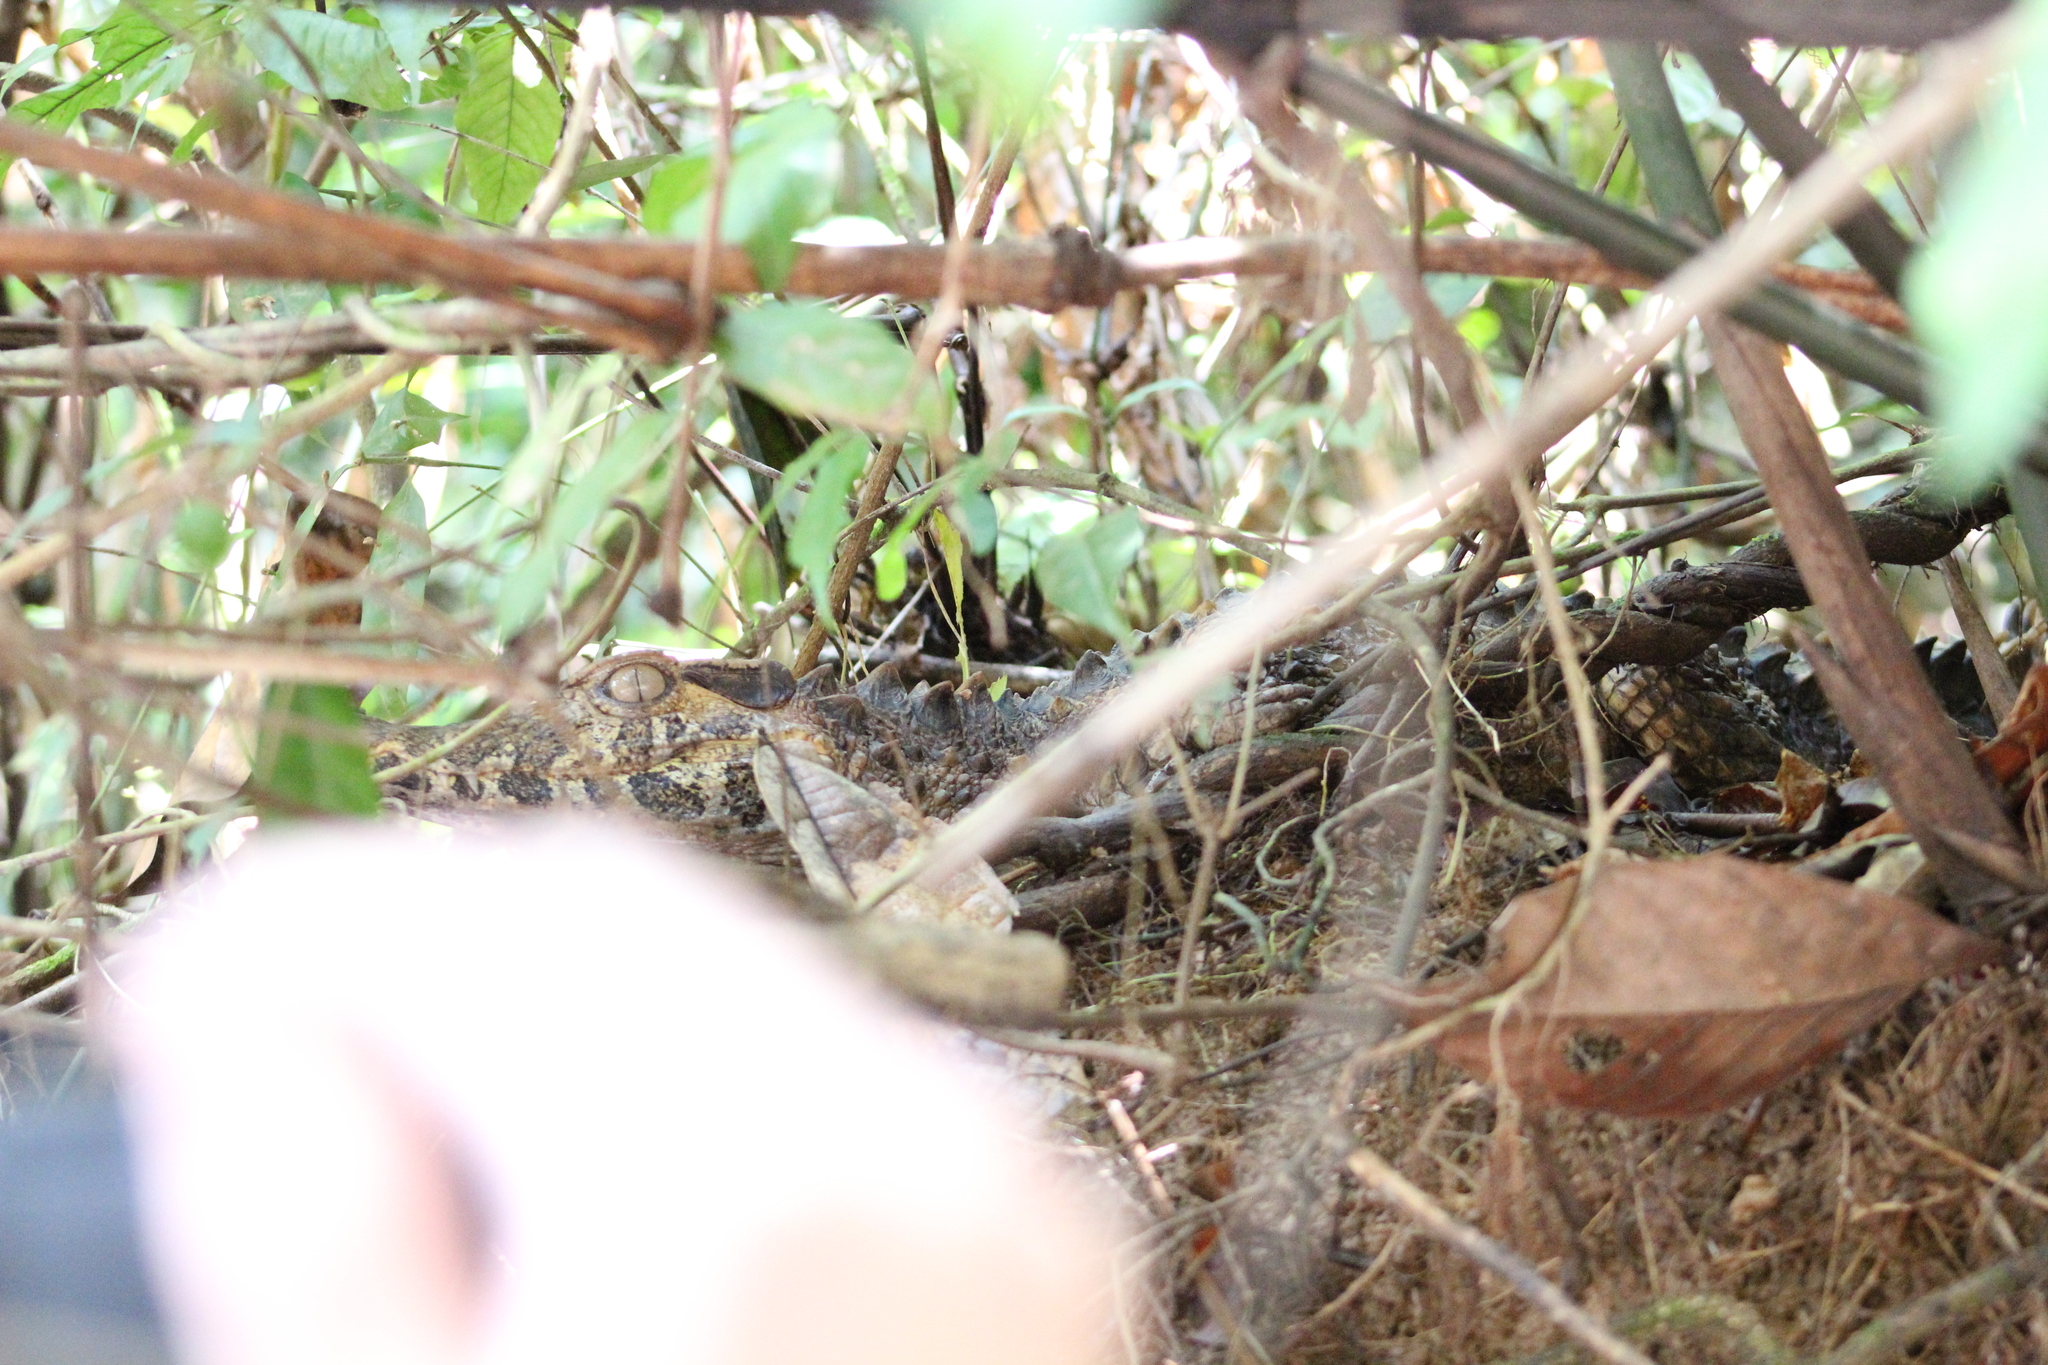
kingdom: Animalia
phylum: Chordata
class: Crocodylia
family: Alligatoridae
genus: Paleosuchus
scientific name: Paleosuchus trigonatus
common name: Schneider's smooth-fronted caiman
